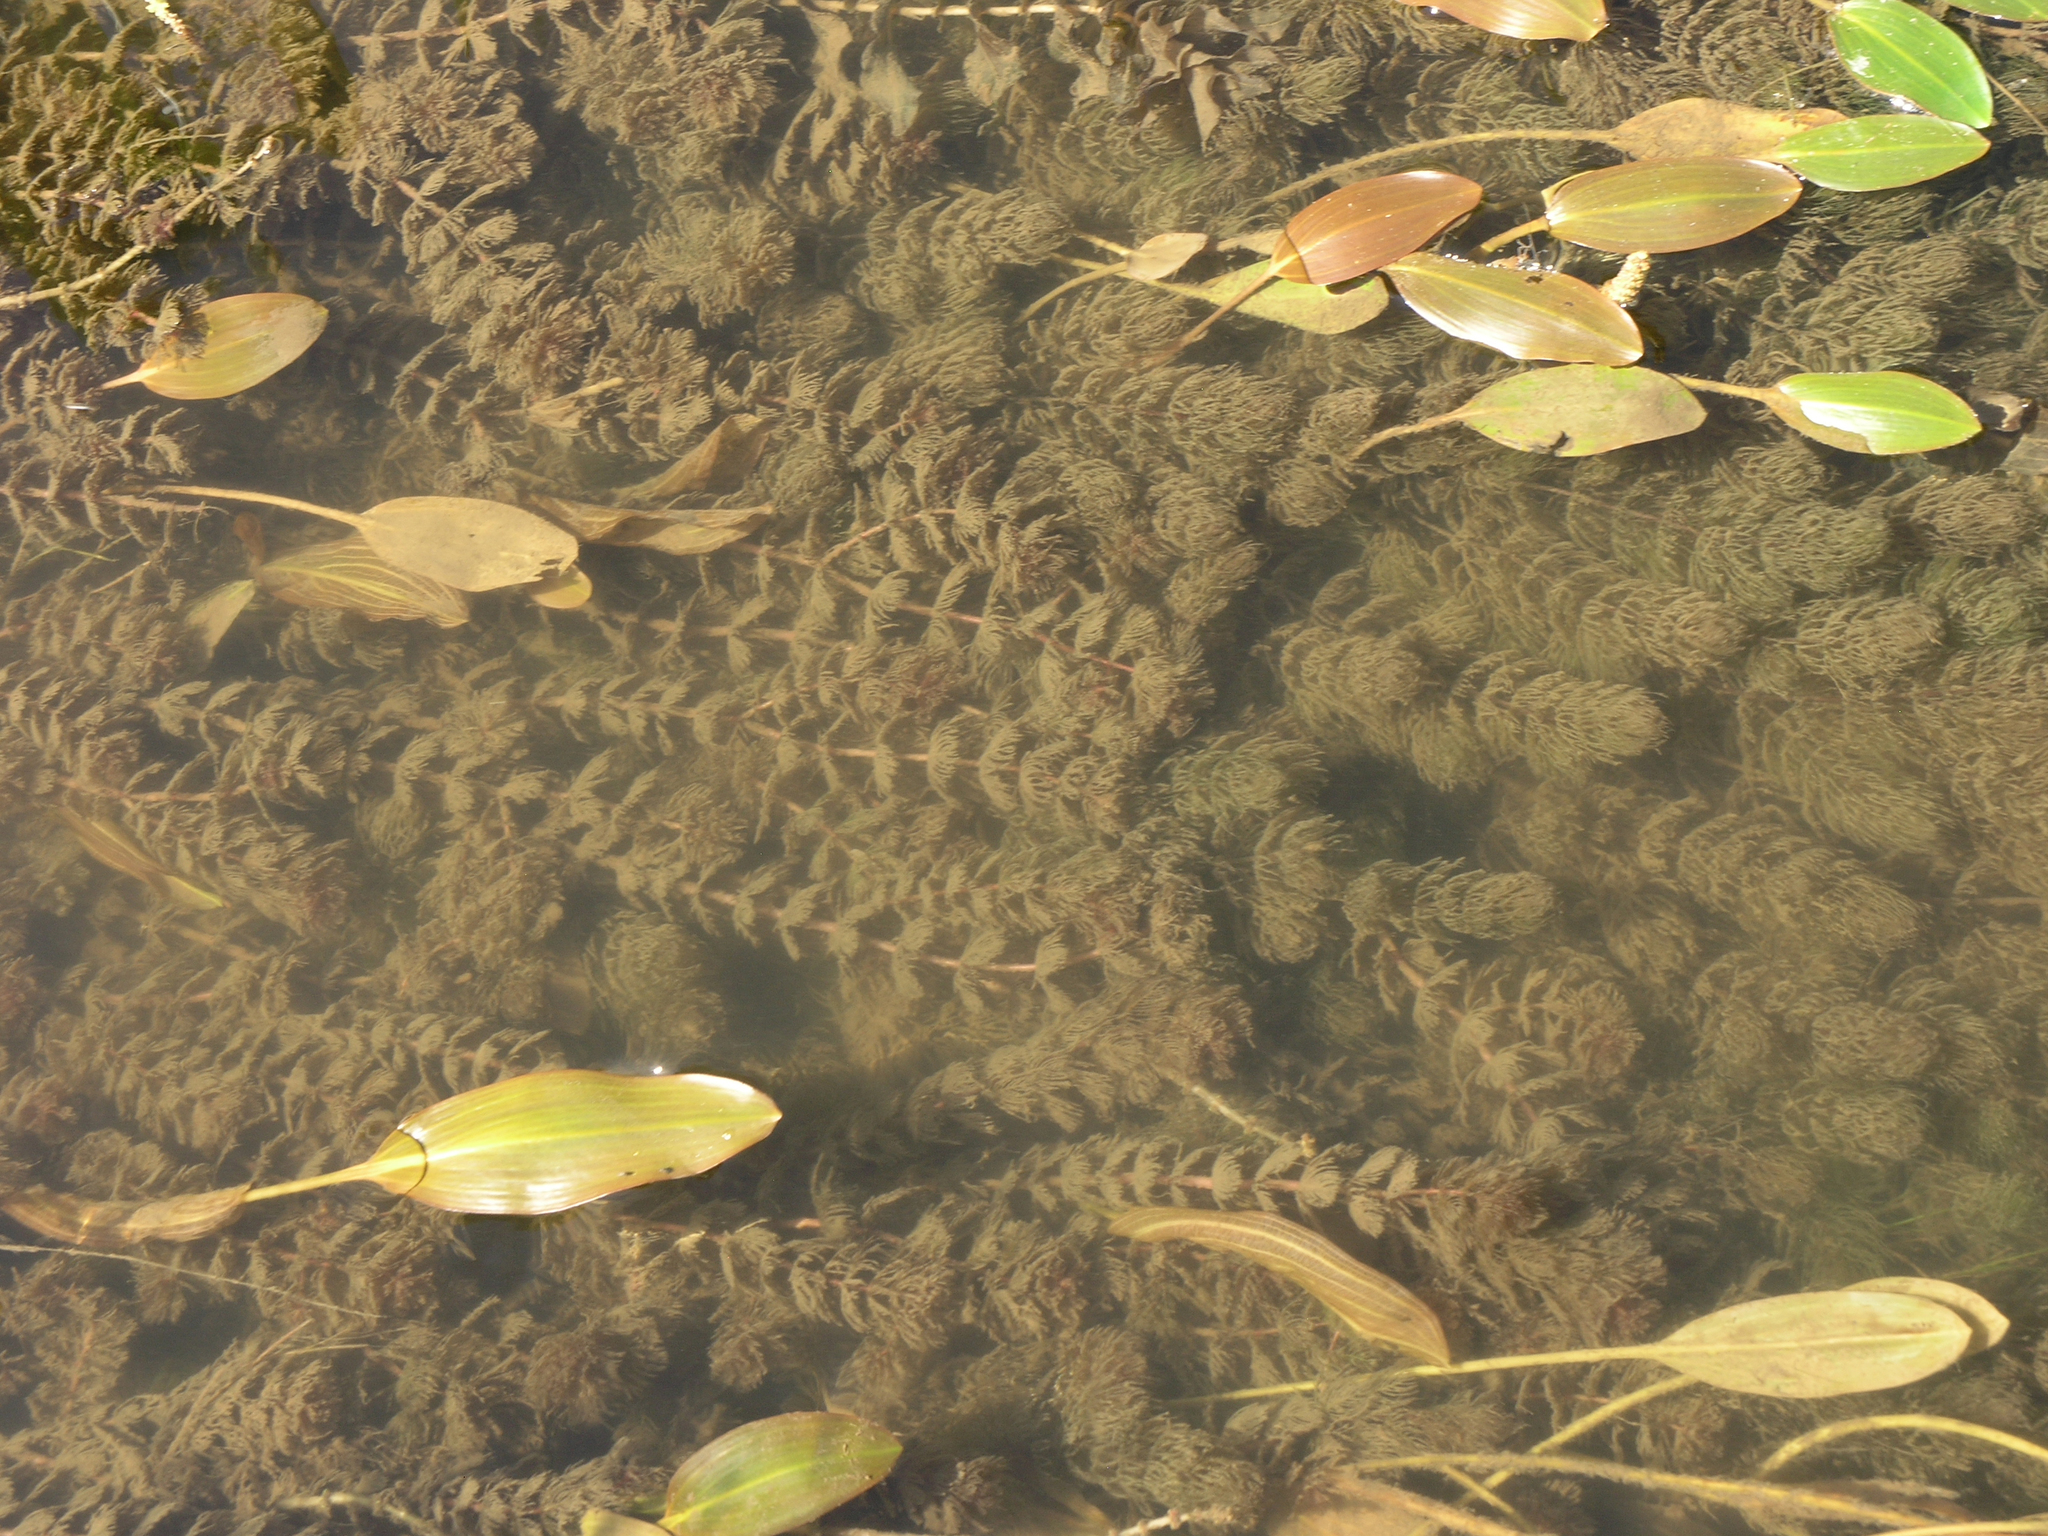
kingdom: Plantae
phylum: Tracheophyta
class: Magnoliopsida
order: Ceratophyllales
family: Ceratophyllaceae
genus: Ceratophyllum
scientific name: Ceratophyllum demersum
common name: Rigid hornwort
